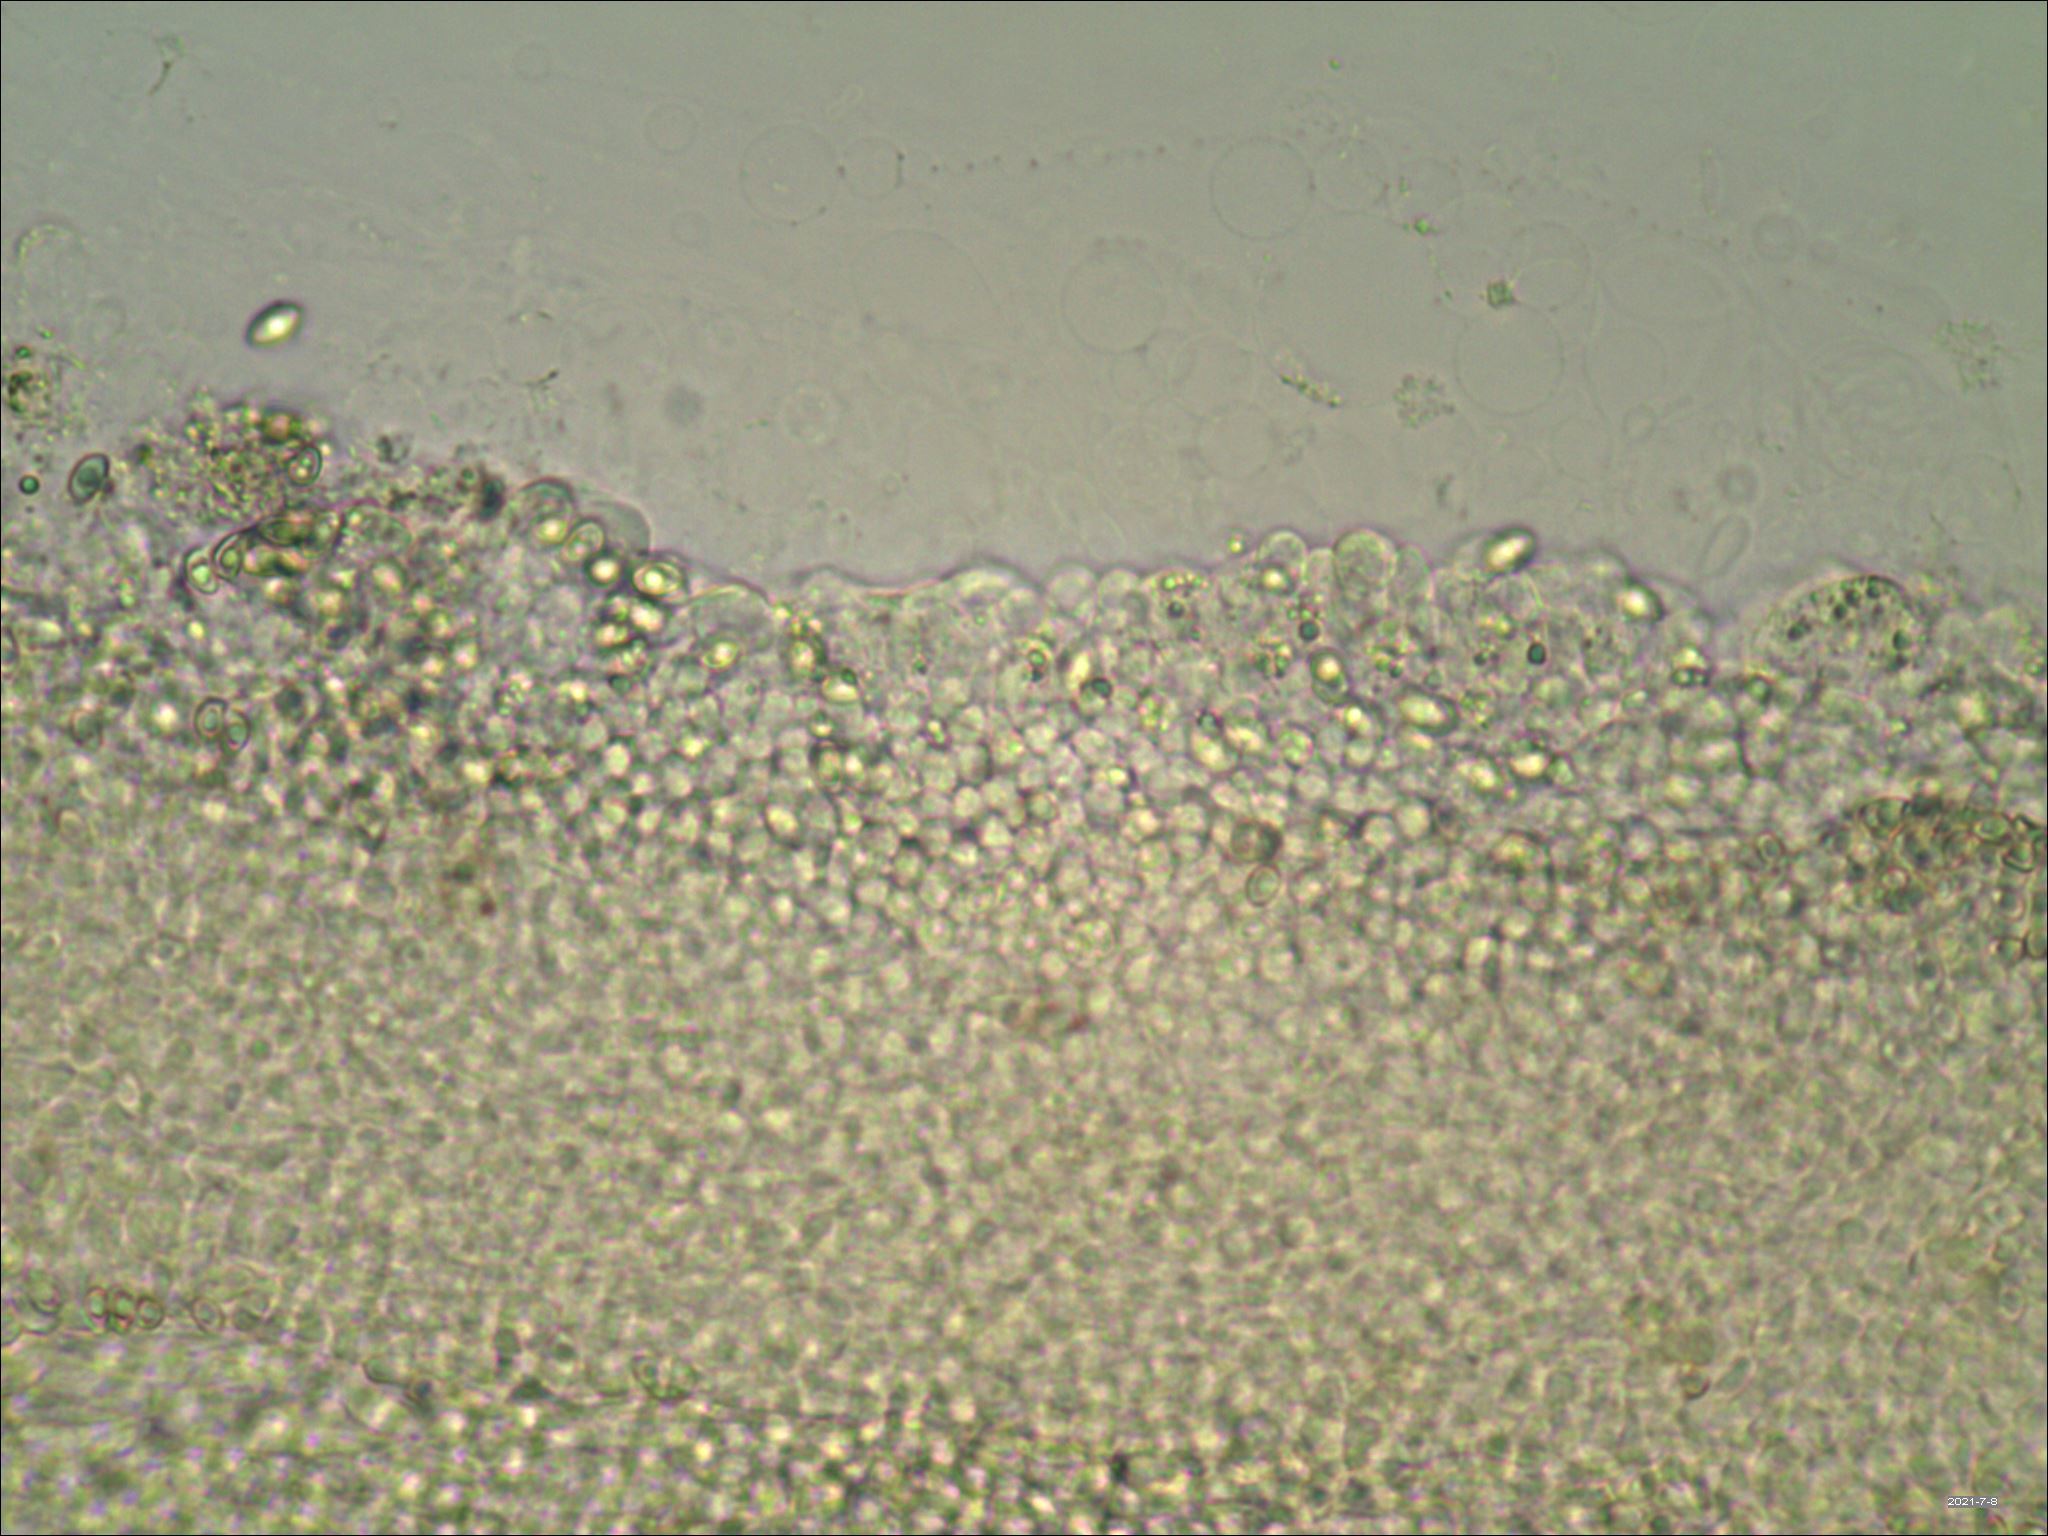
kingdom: Fungi
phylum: Basidiomycota
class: Agaricomycetes
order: Agaricales
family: Agaricaceae
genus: Lepiota
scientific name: Lepiota flammeotincta
